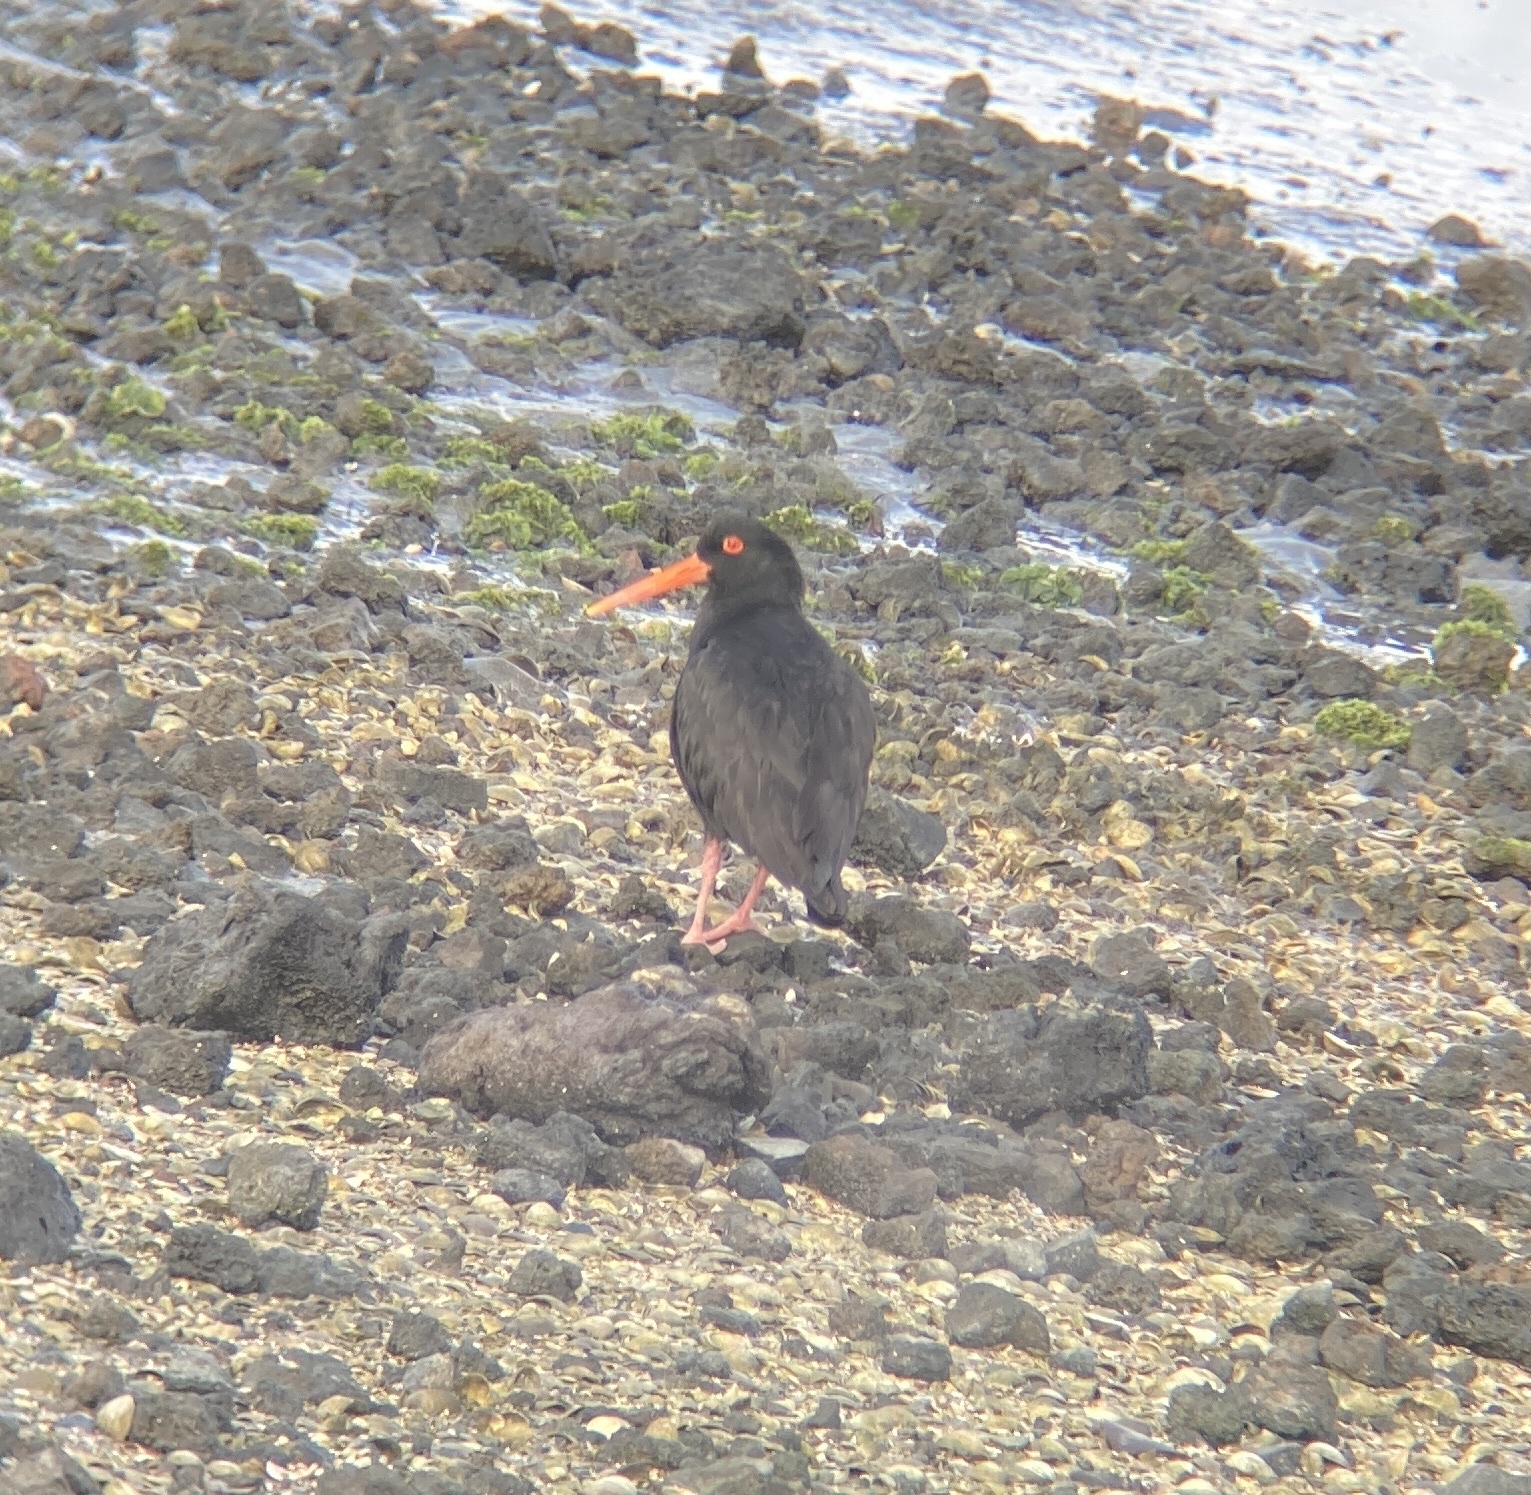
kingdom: Animalia
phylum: Chordata
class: Aves
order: Charadriiformes
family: Haematopodidae
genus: Haematopus
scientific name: Haematopus unicolor
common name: Variable oystercatcher
